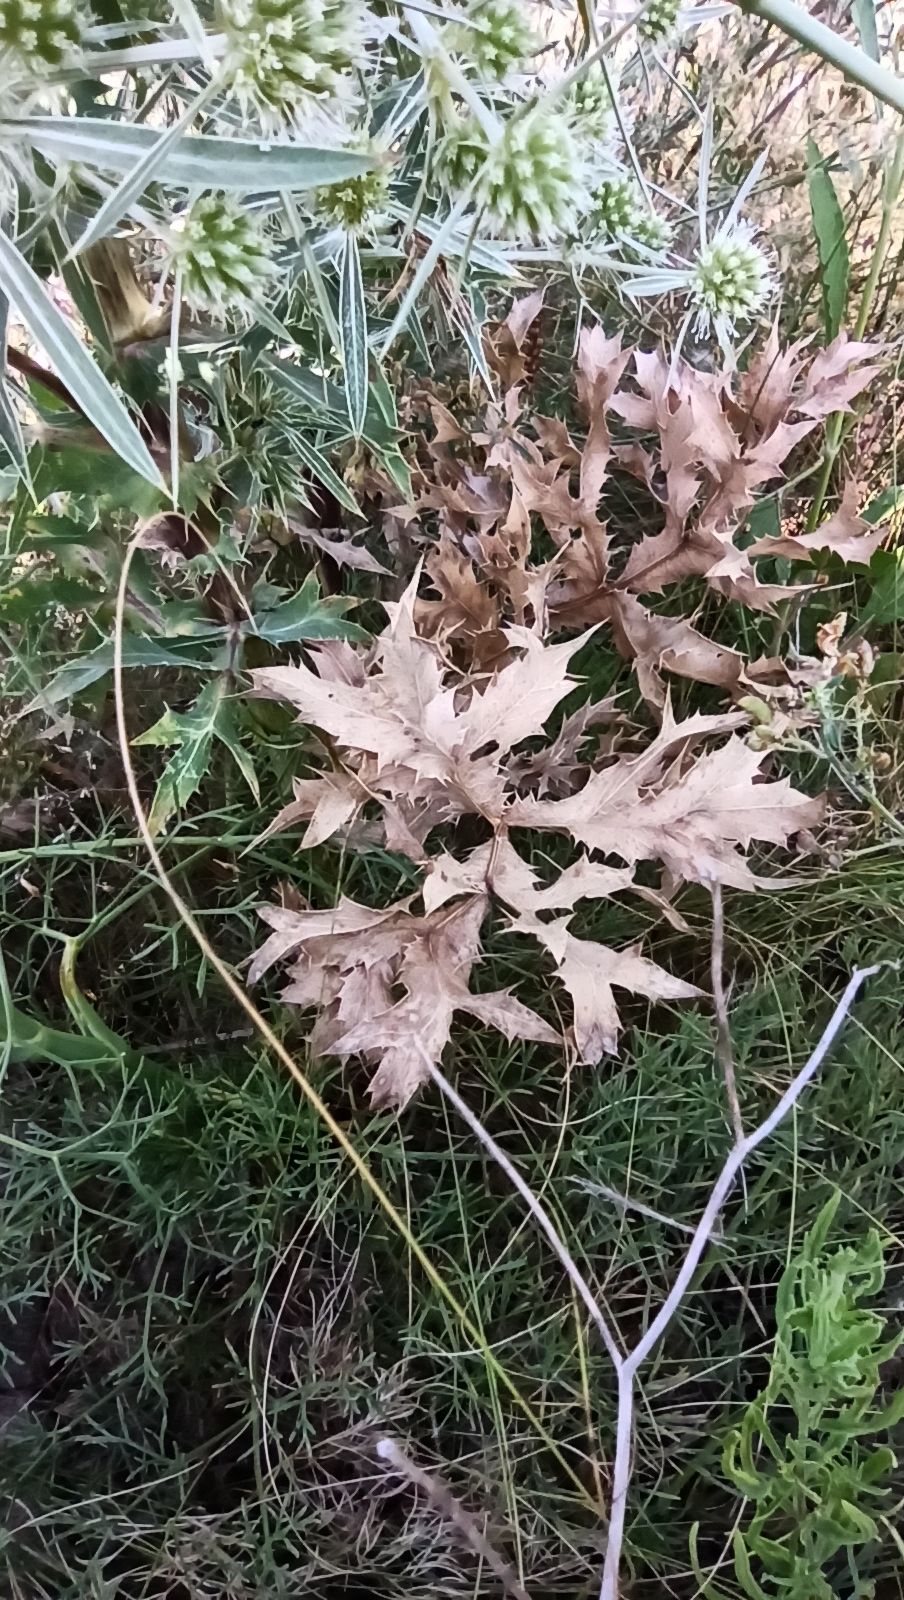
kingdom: Plantae
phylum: Tracheophyta
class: Magnoliopsida
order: Apiales
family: Apiaceae
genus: Eryngium
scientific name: Eryngium campestre
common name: Field eryngo
